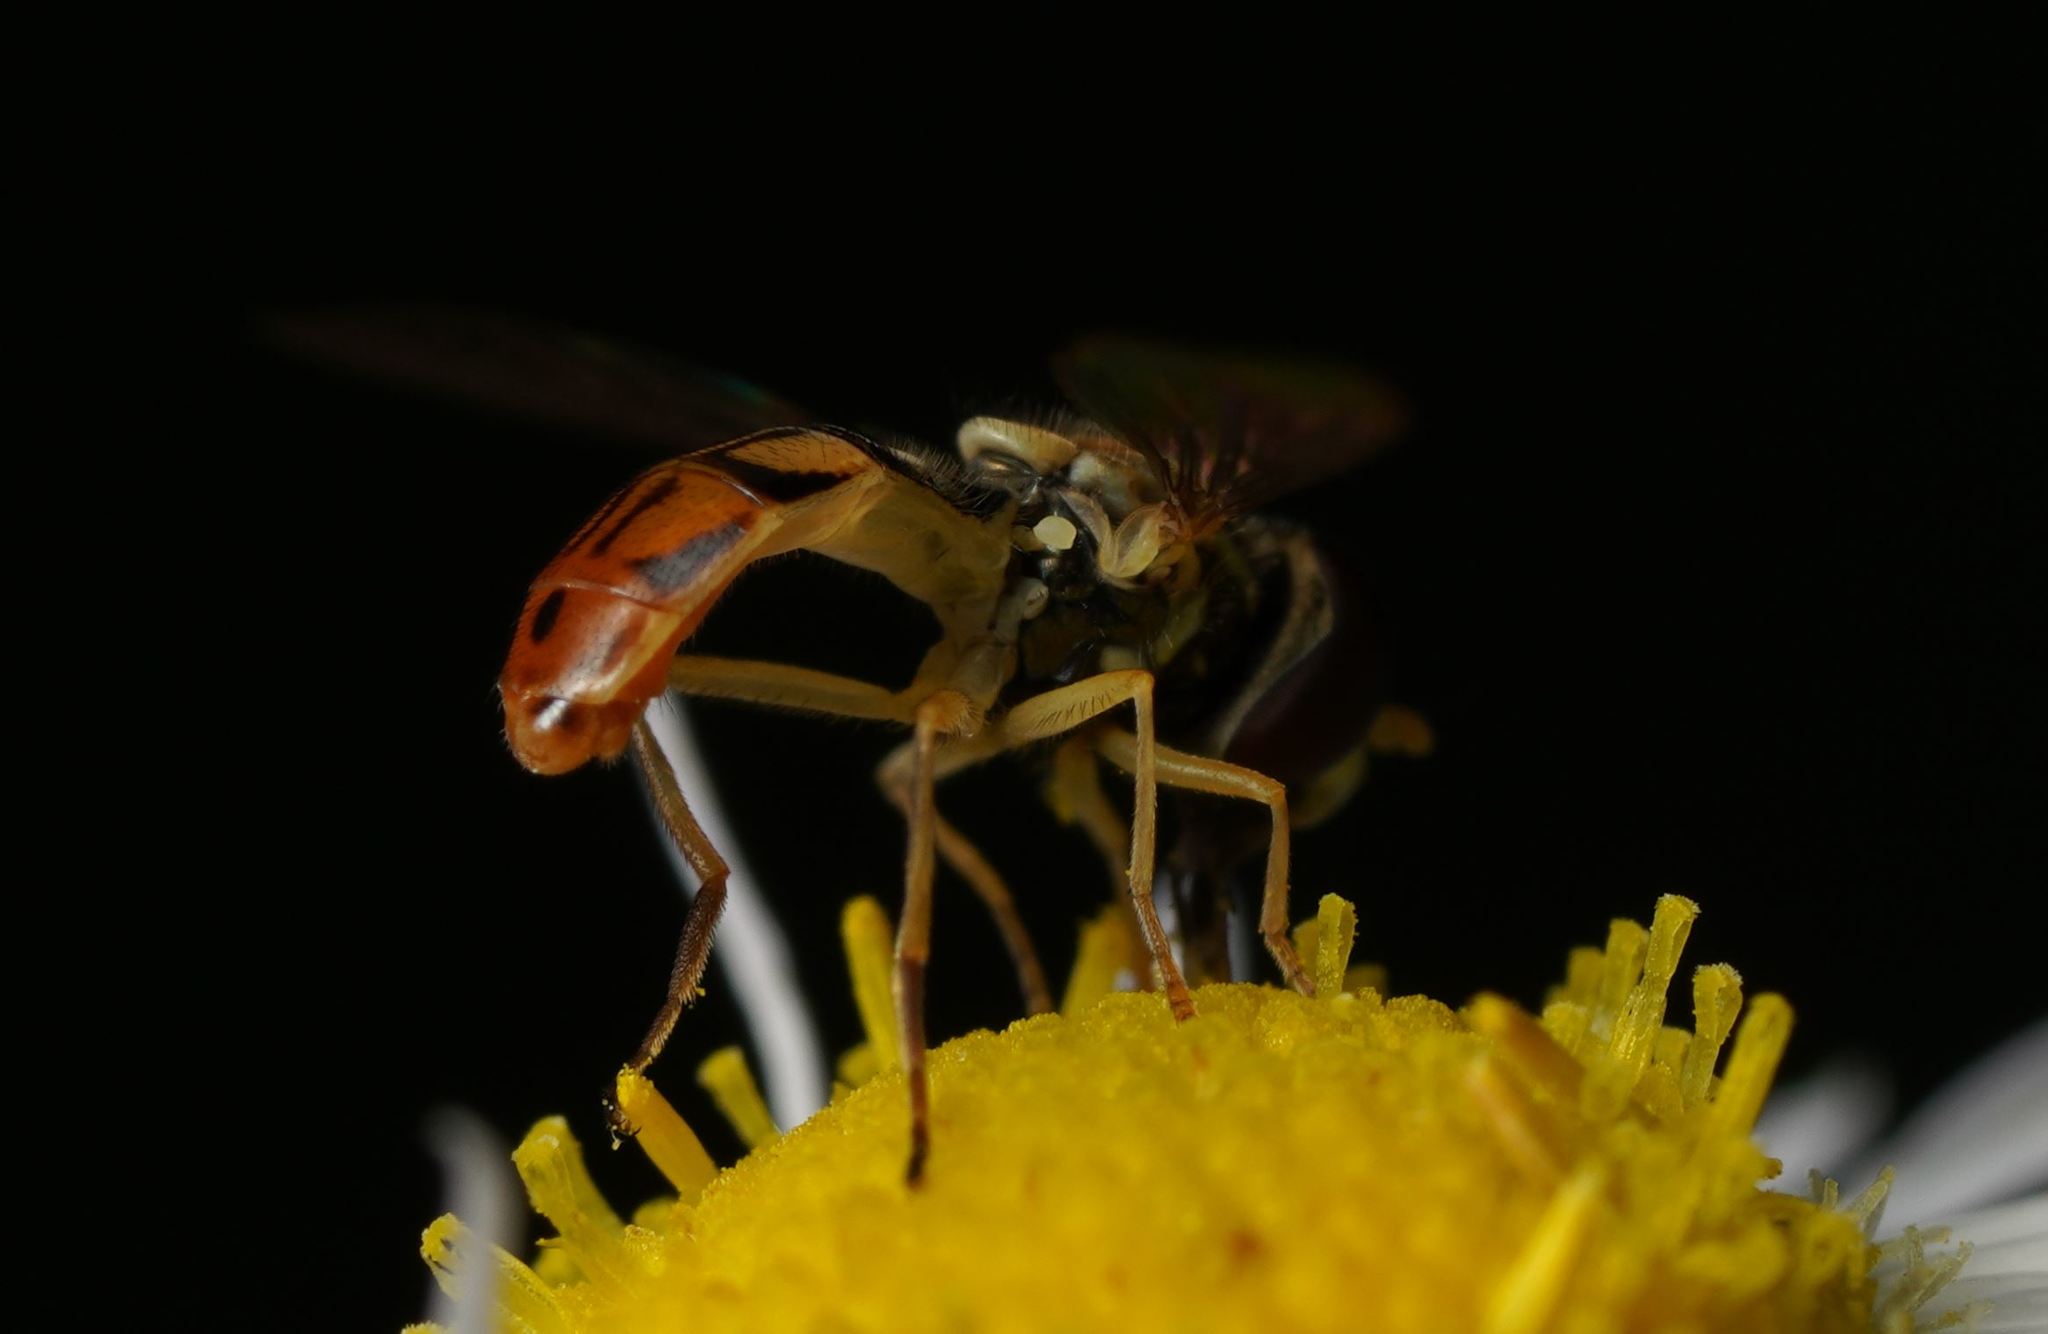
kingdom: Animalia
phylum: Arthropoda
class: Insecta
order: Diptera
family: Syrphidae
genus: Toxomerus
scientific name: Toxomerus marginatus
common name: Syrphid fly
